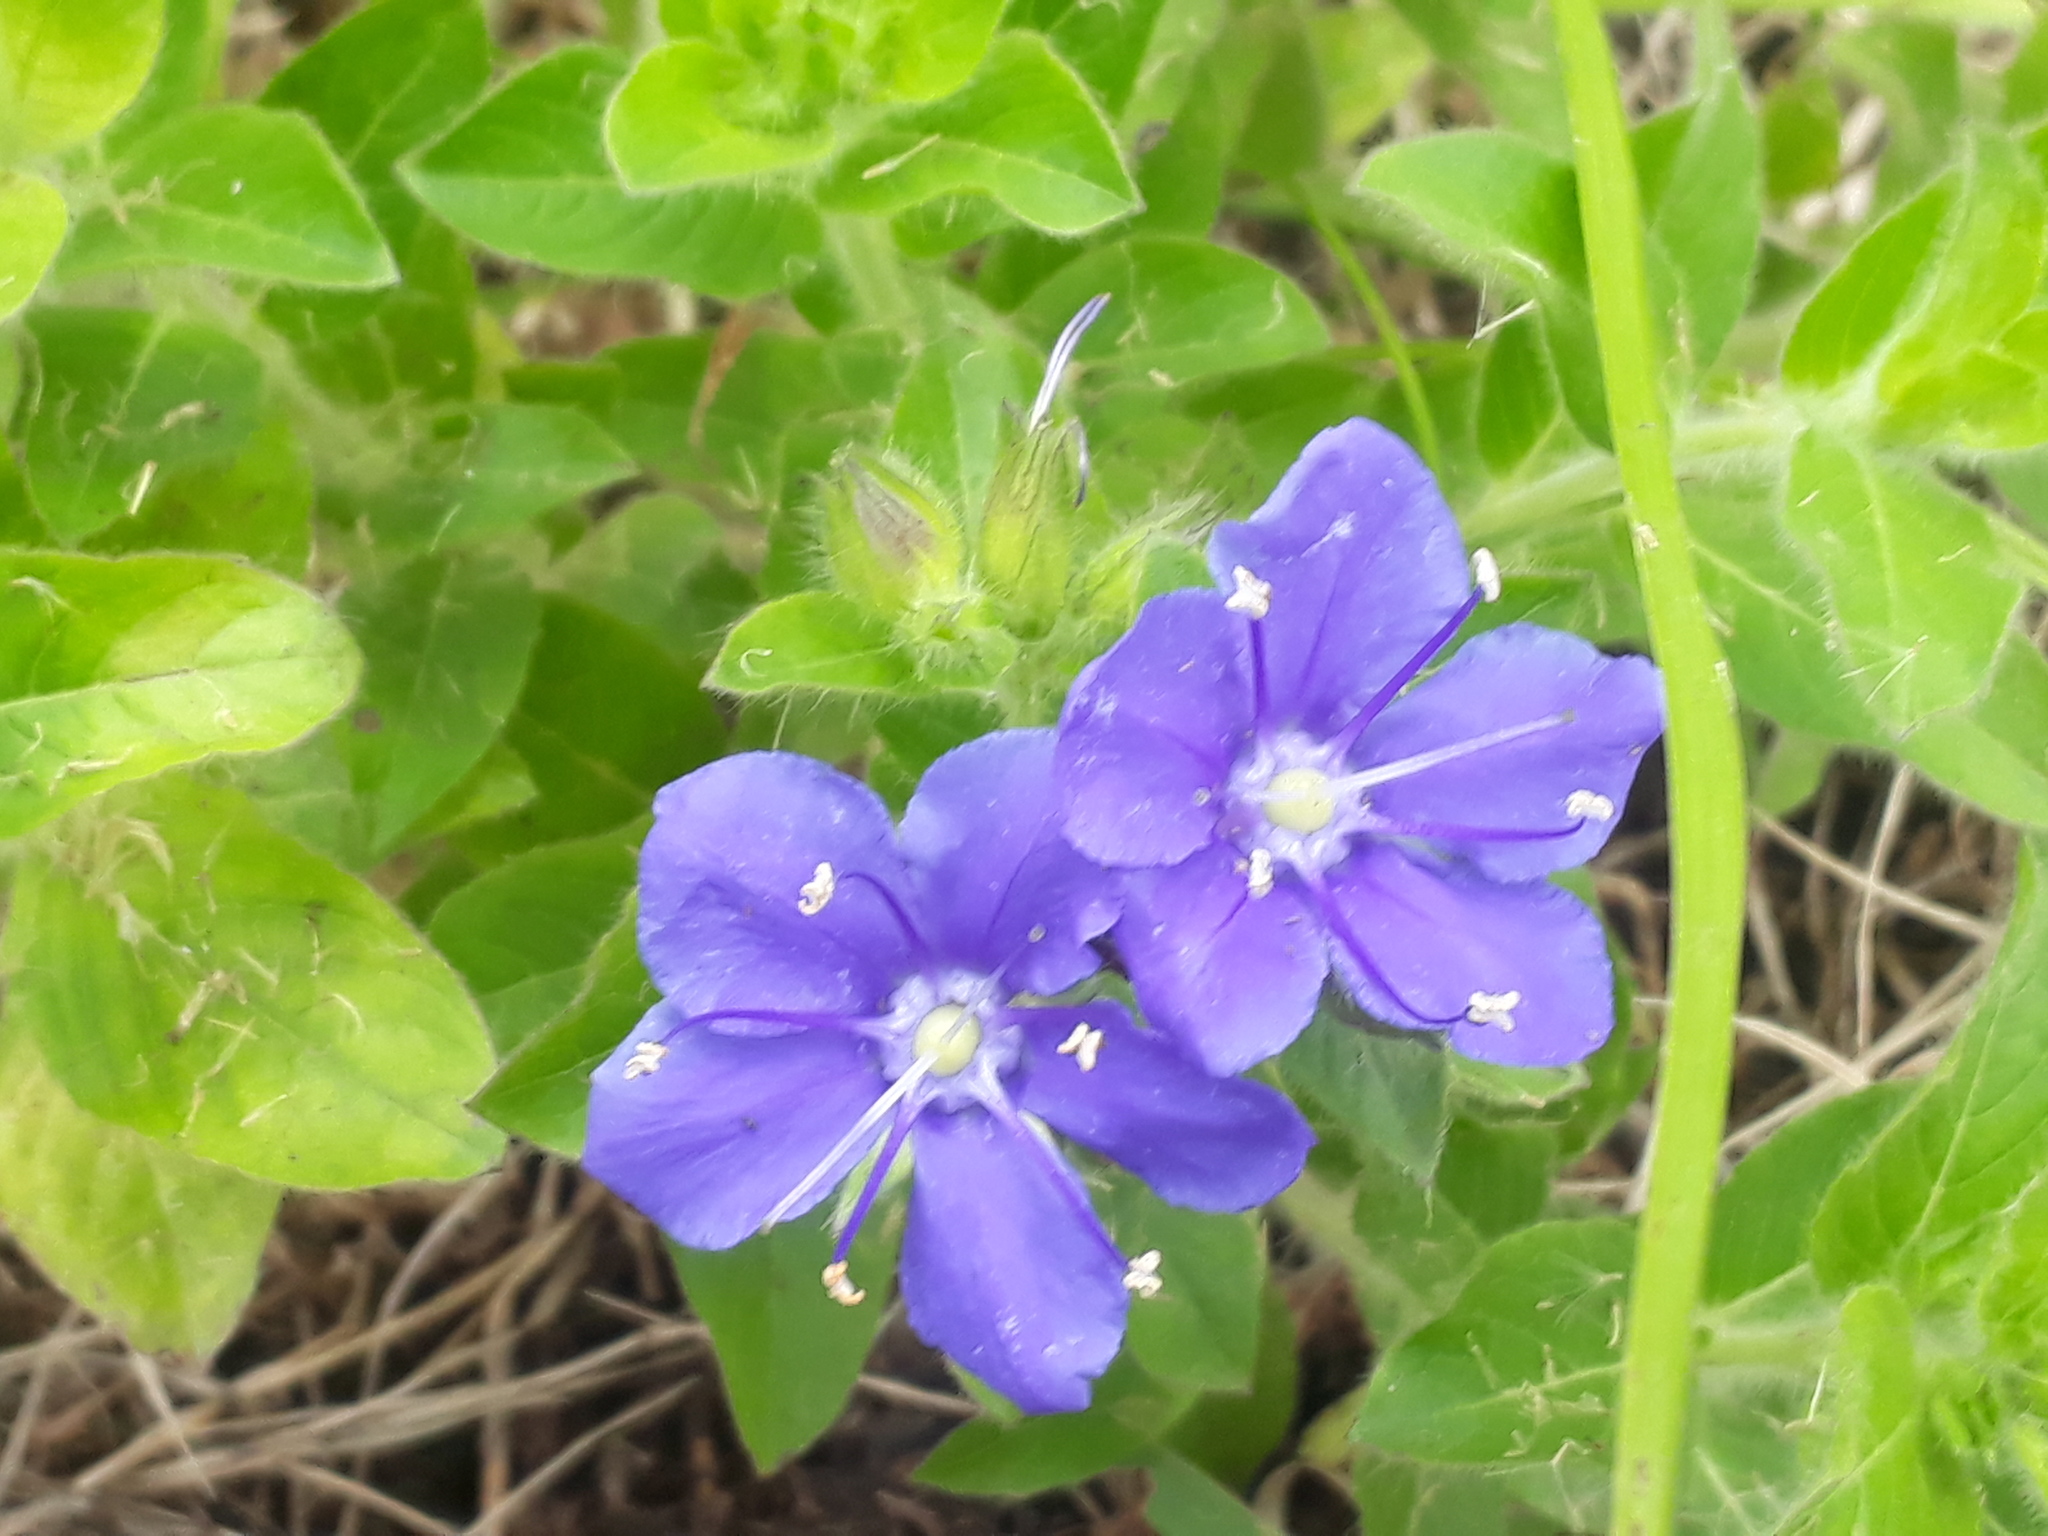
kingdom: Plantae
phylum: Tracheophyta
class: Magnoliopsida
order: Solanales
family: Hydroleaceae
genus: Hydrolea
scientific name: Hydrolea spinosa
